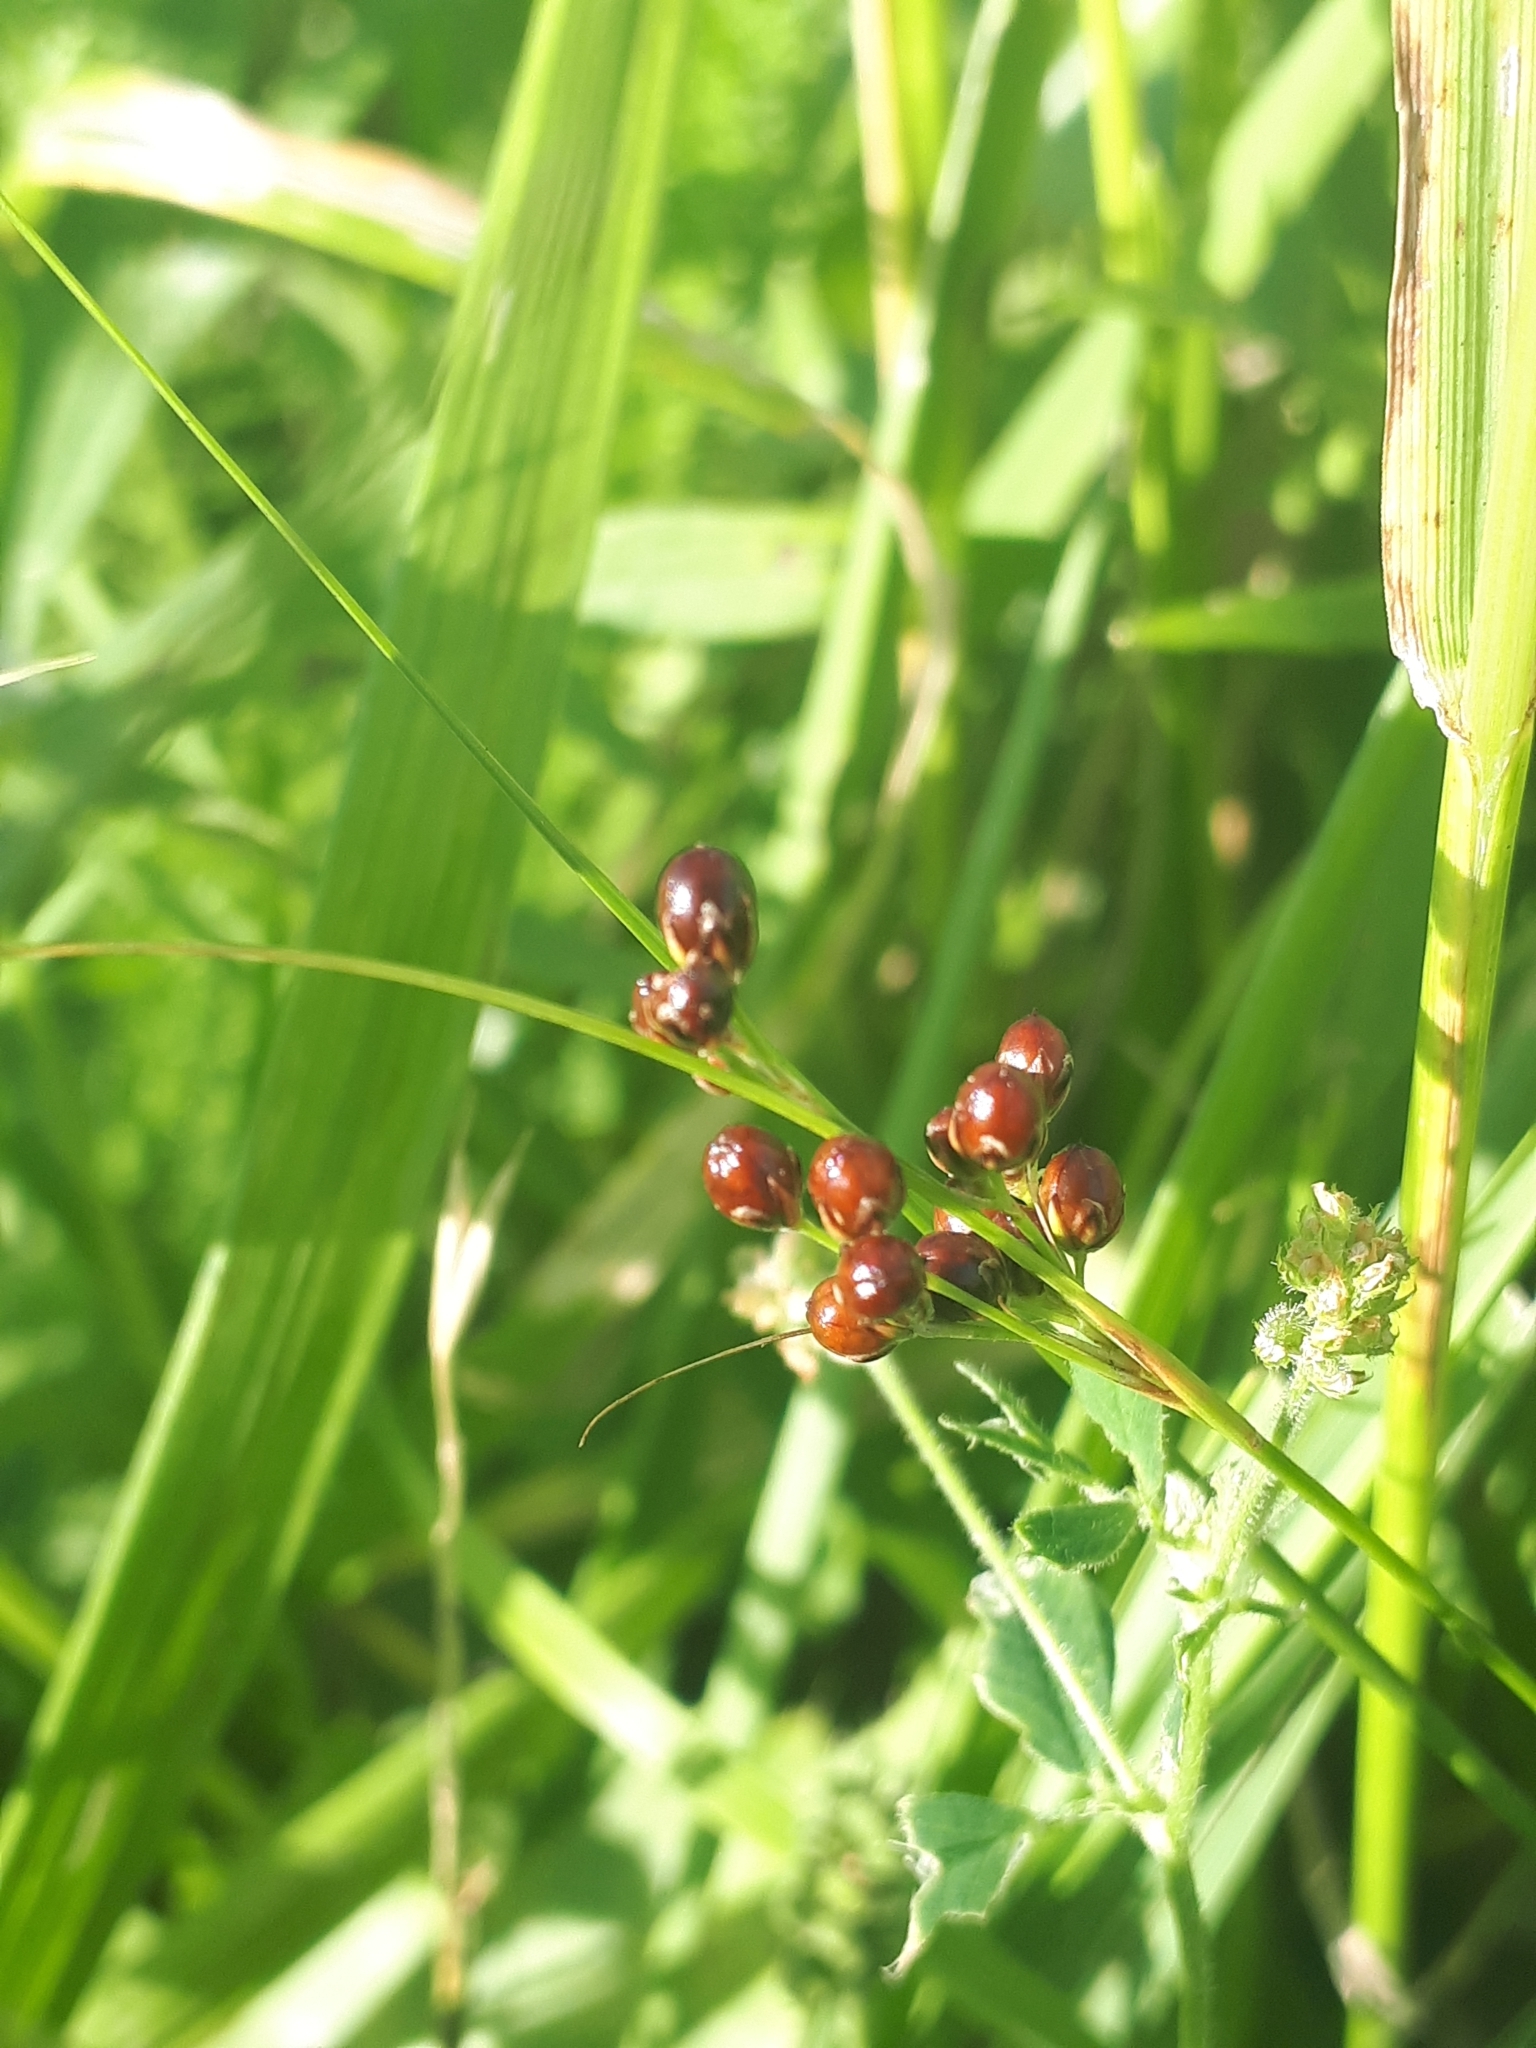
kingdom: Plantae
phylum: Tracheophyta
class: Liliopsida
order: Poales
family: Juncaceae
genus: Juncus
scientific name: Juncus compressus
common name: Round-fruited rush
